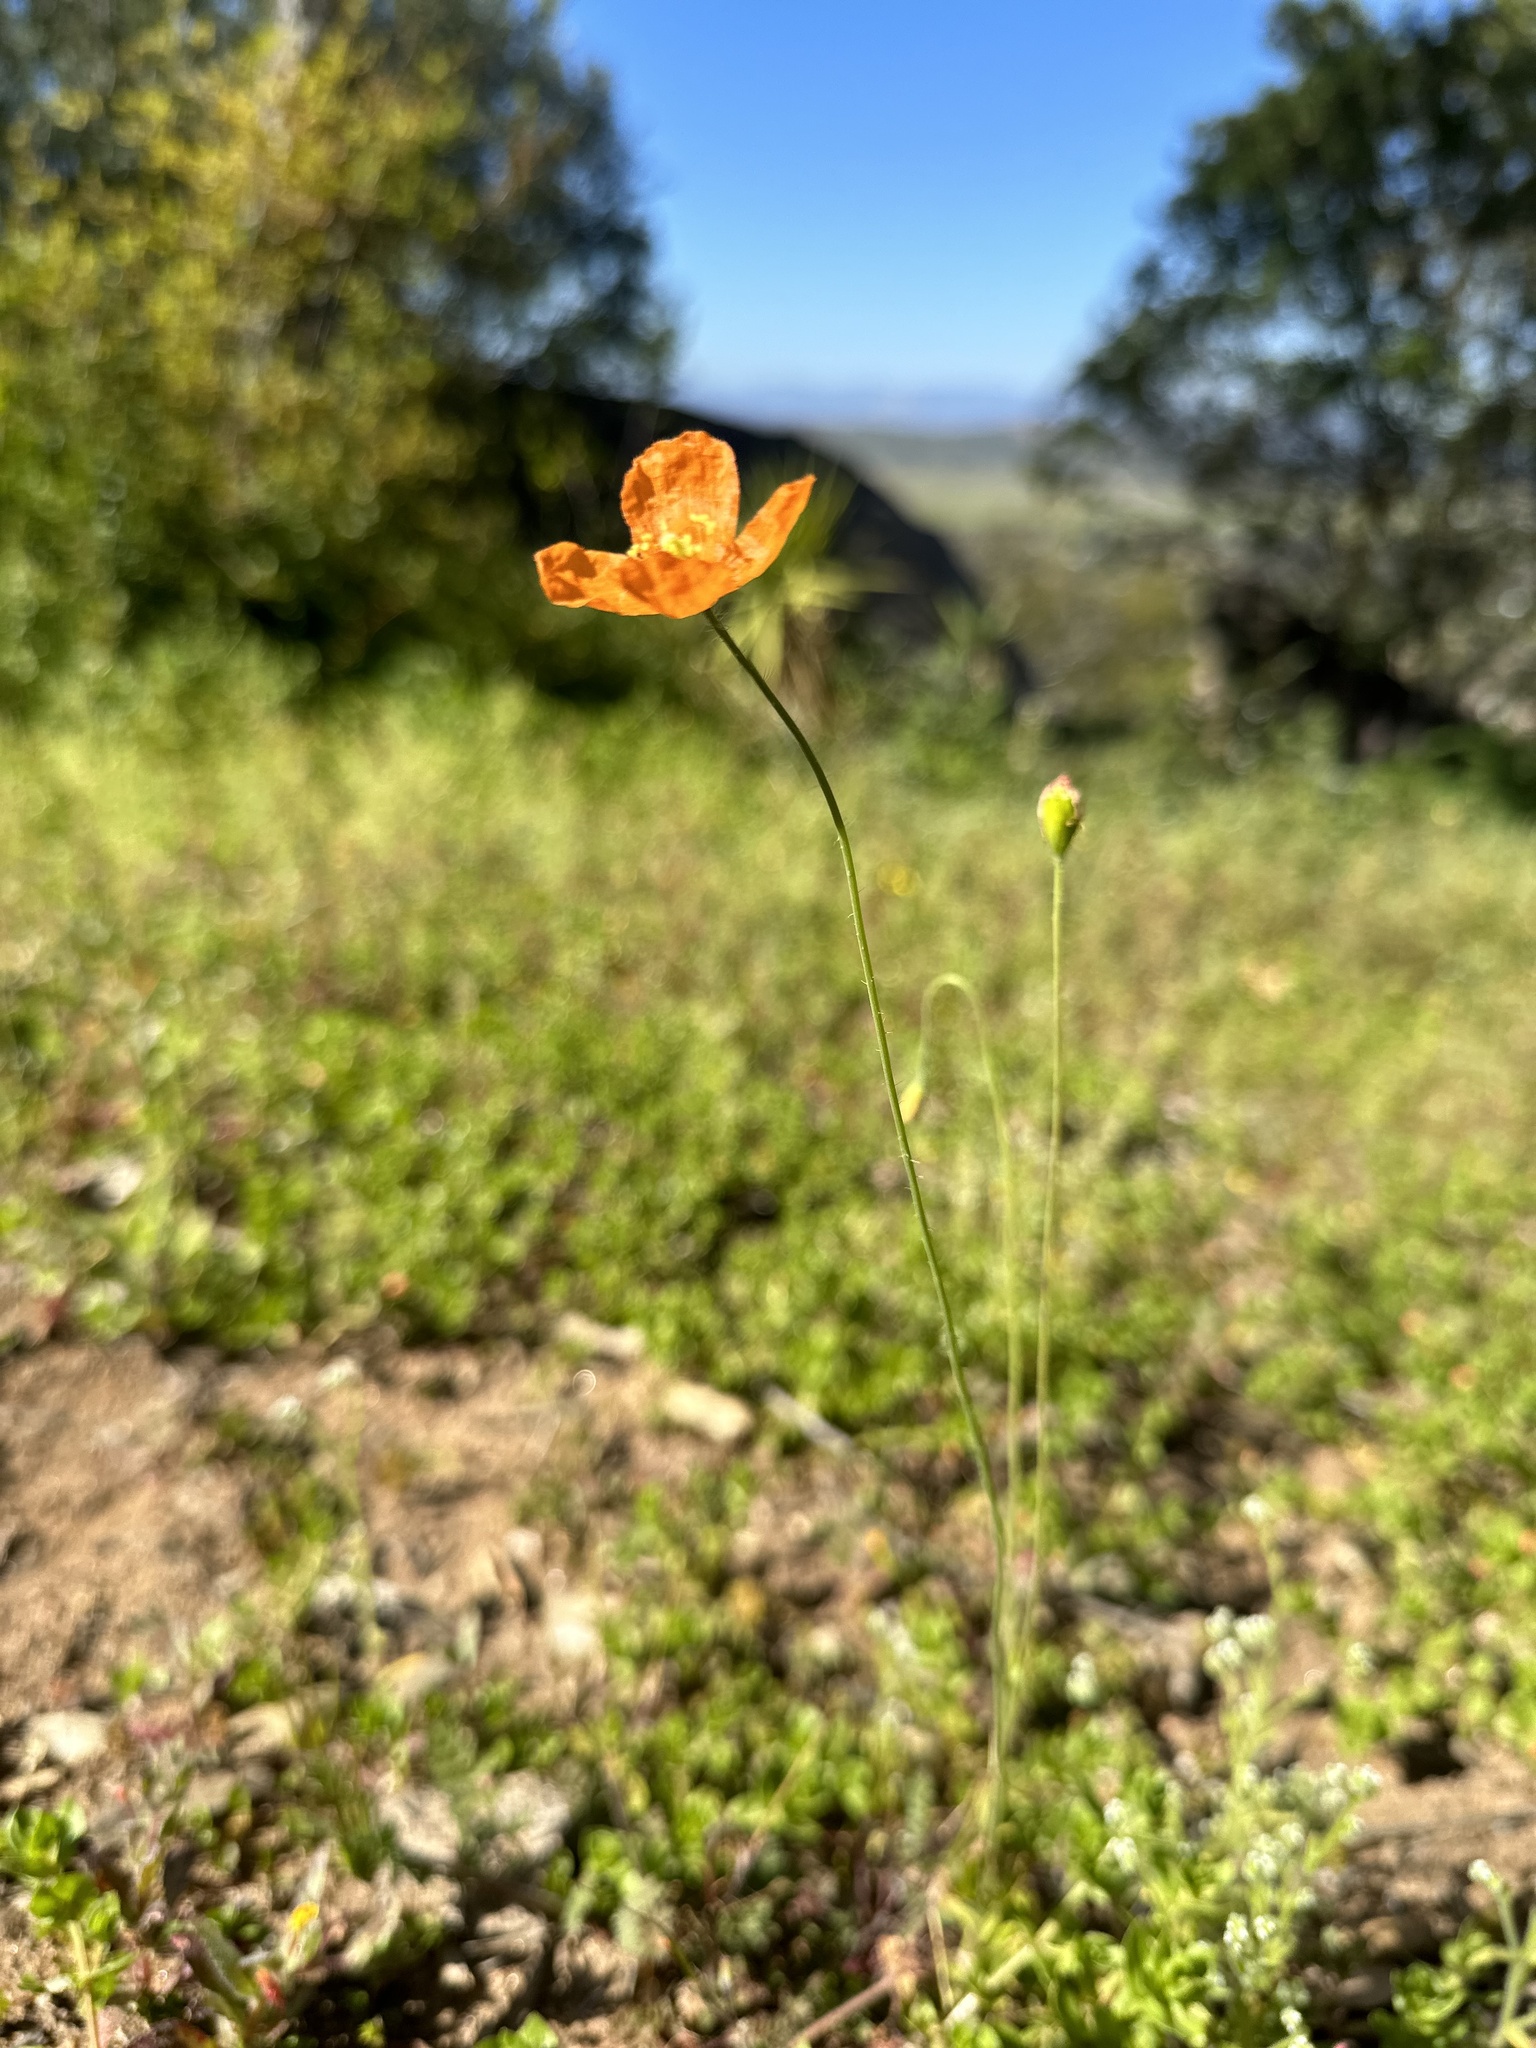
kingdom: Plantae
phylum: Tracheophyta
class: Magnoliopsida
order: Ranunculales
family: Papaveraceae
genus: Papaver
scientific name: Papaver californicum
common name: Fire poppy
